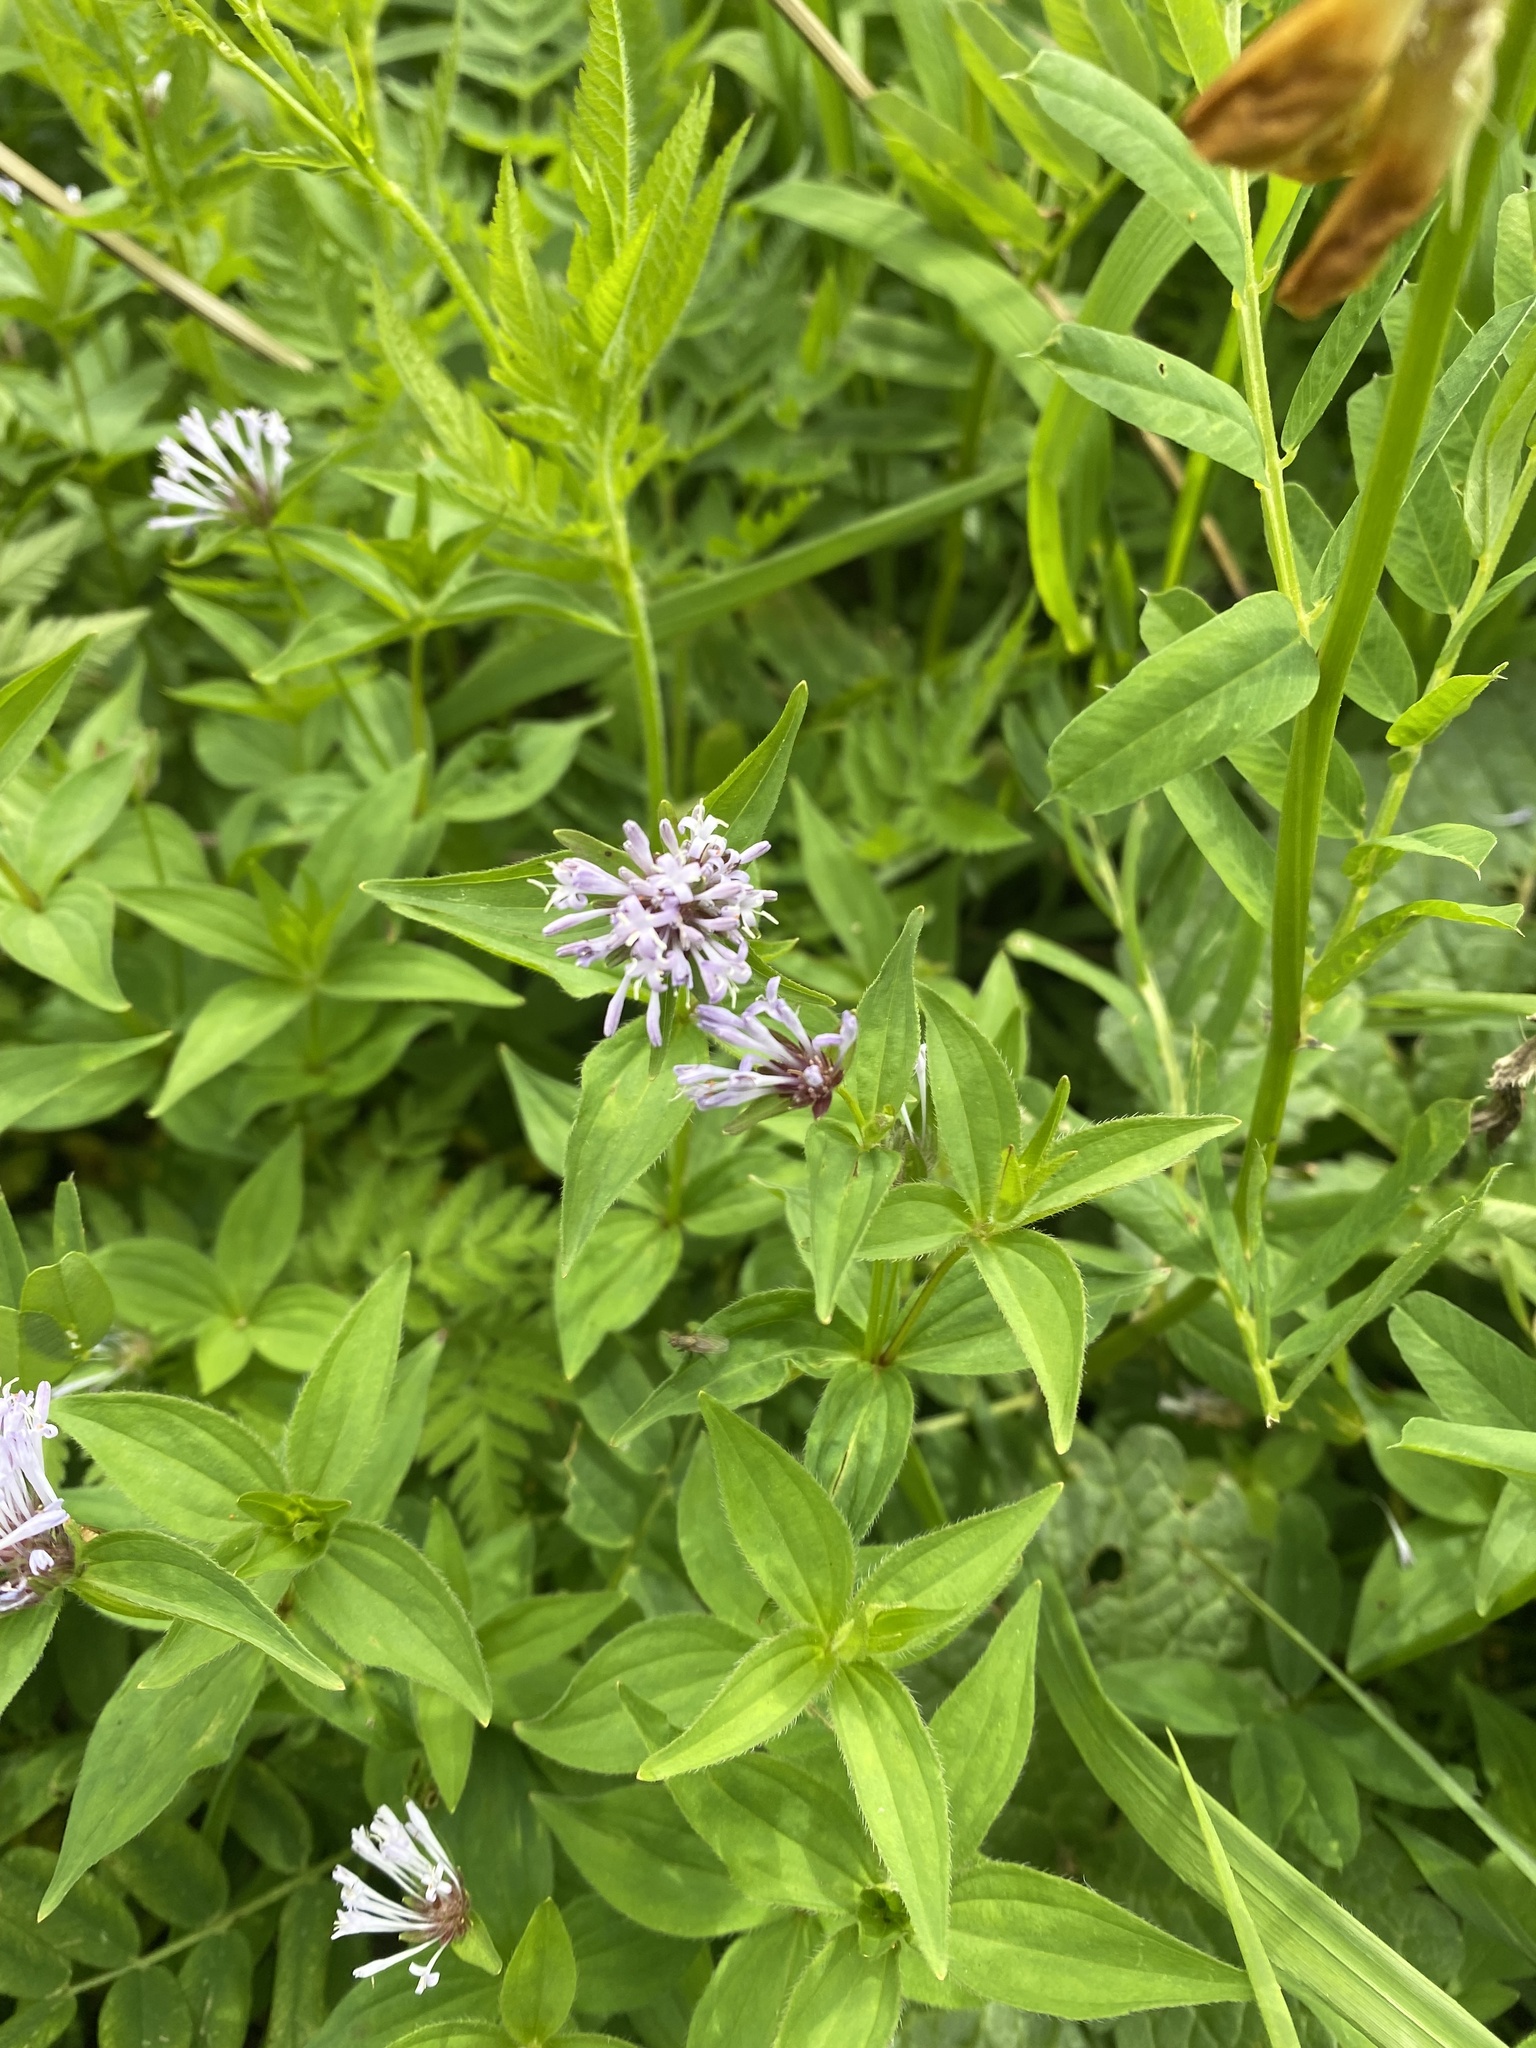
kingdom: Plantae
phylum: Tracheophyta
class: Magnoliopsida
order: Gentianales
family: Rubiaceae
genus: Asperula
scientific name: Asperula taurina
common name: Pink woodruff
